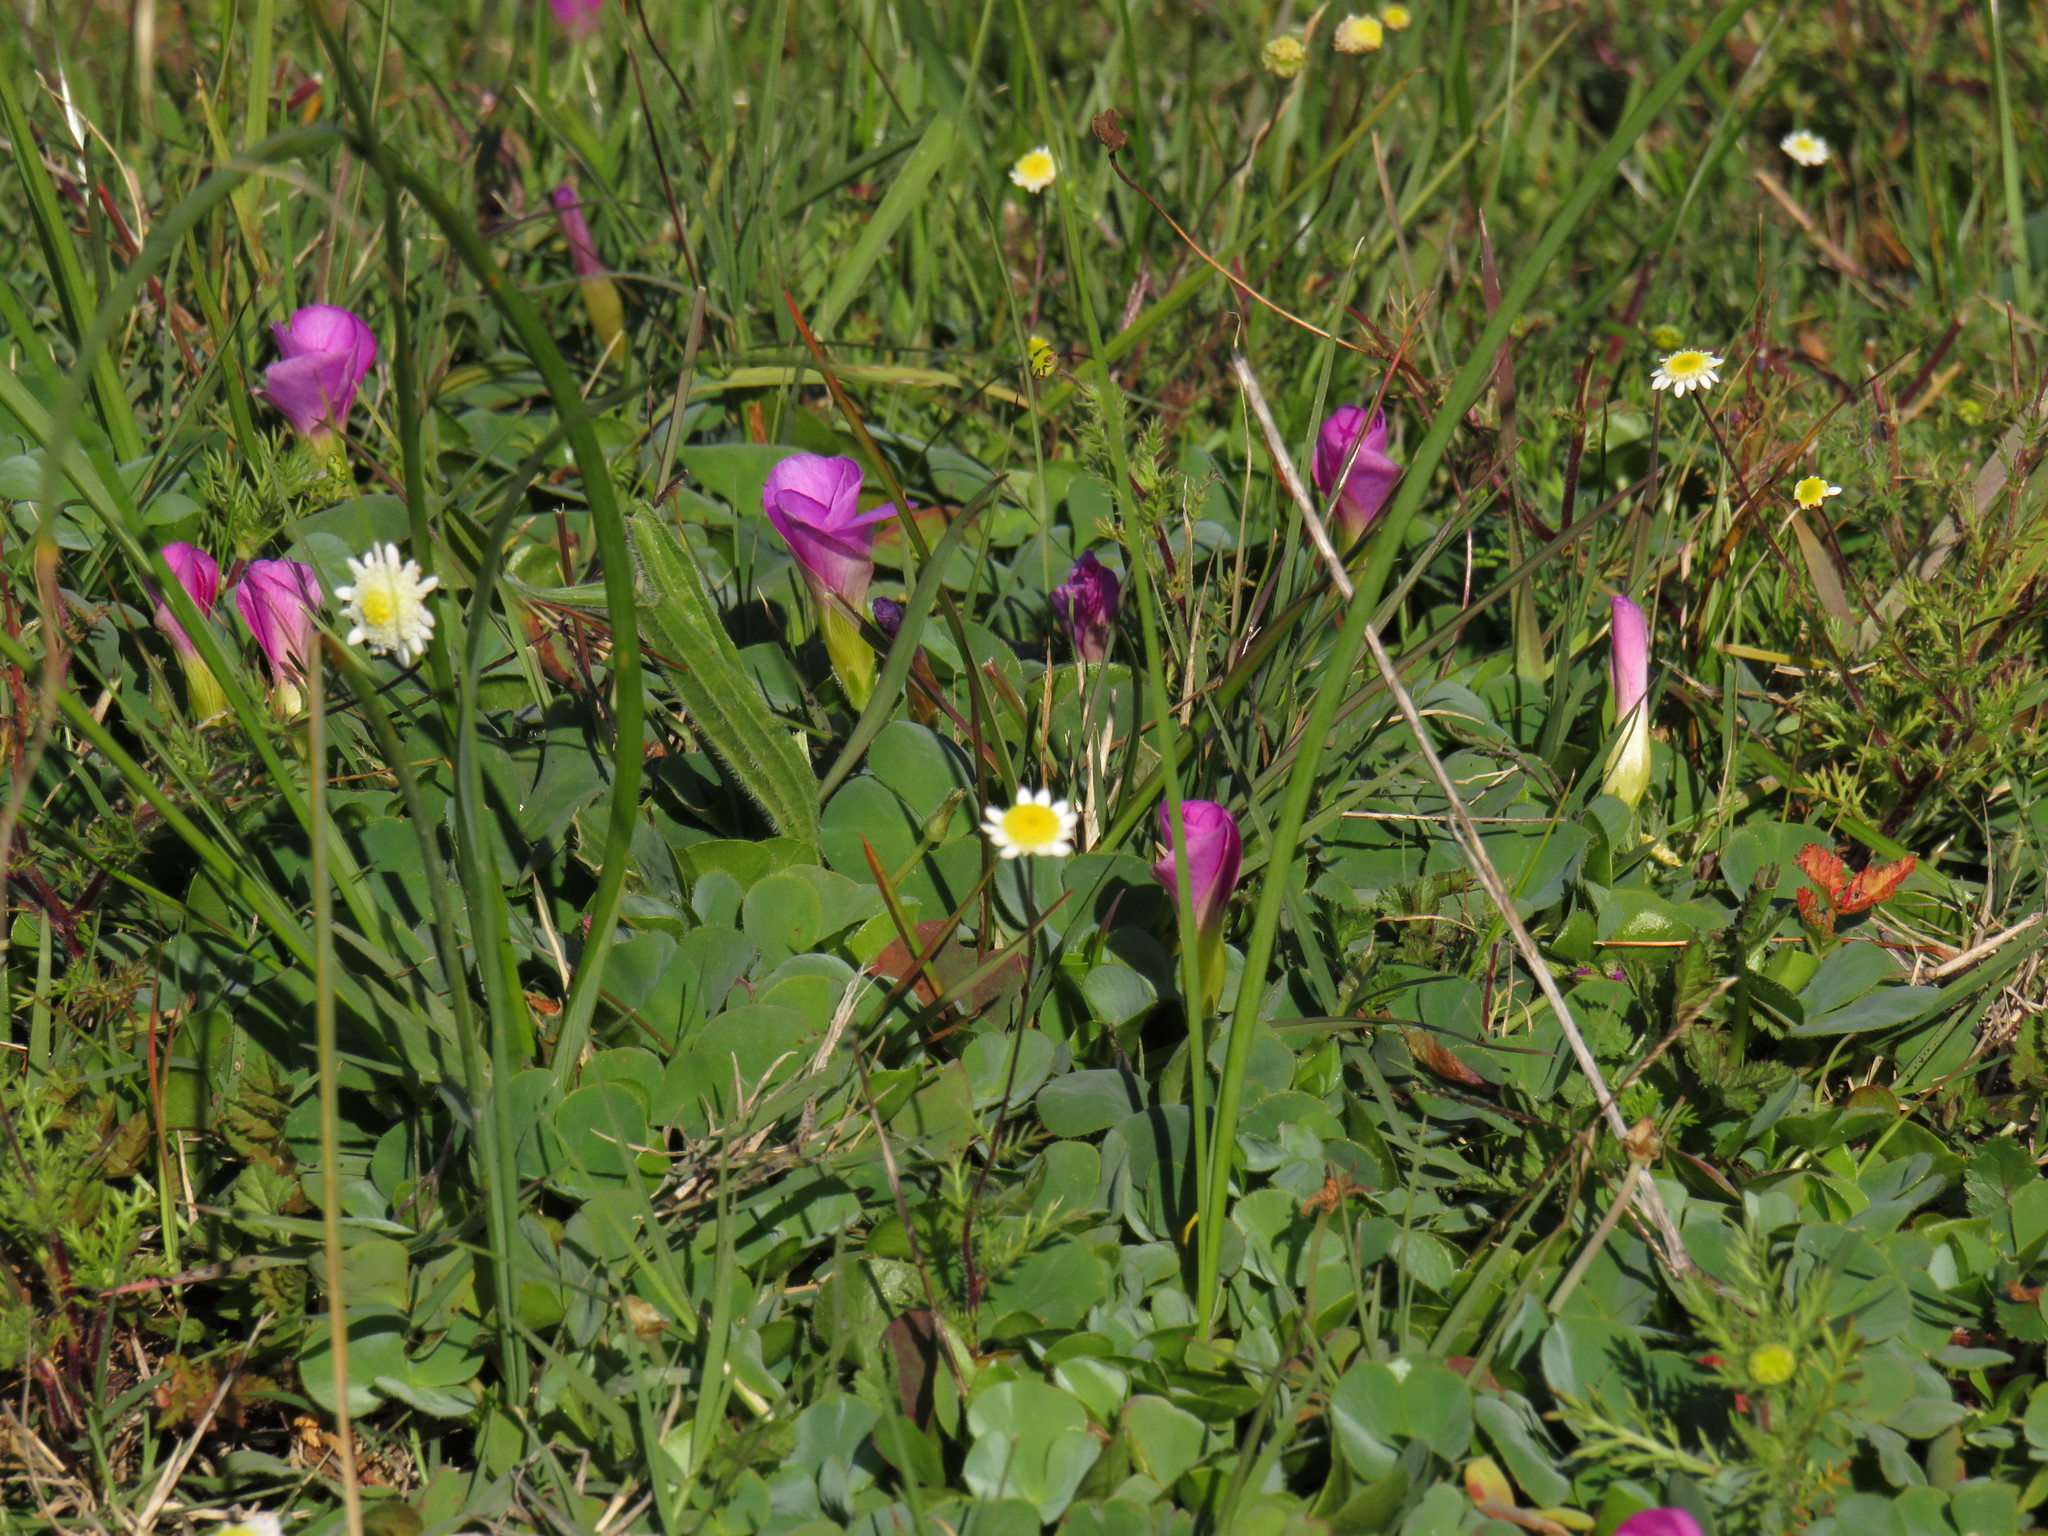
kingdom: Plantae
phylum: Tracheophyta
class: Magnoliopsida
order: Oxalidales
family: Oxalidaceae
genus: Oxalis
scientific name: Oxalis purpurea
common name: Purple woodsorrel
